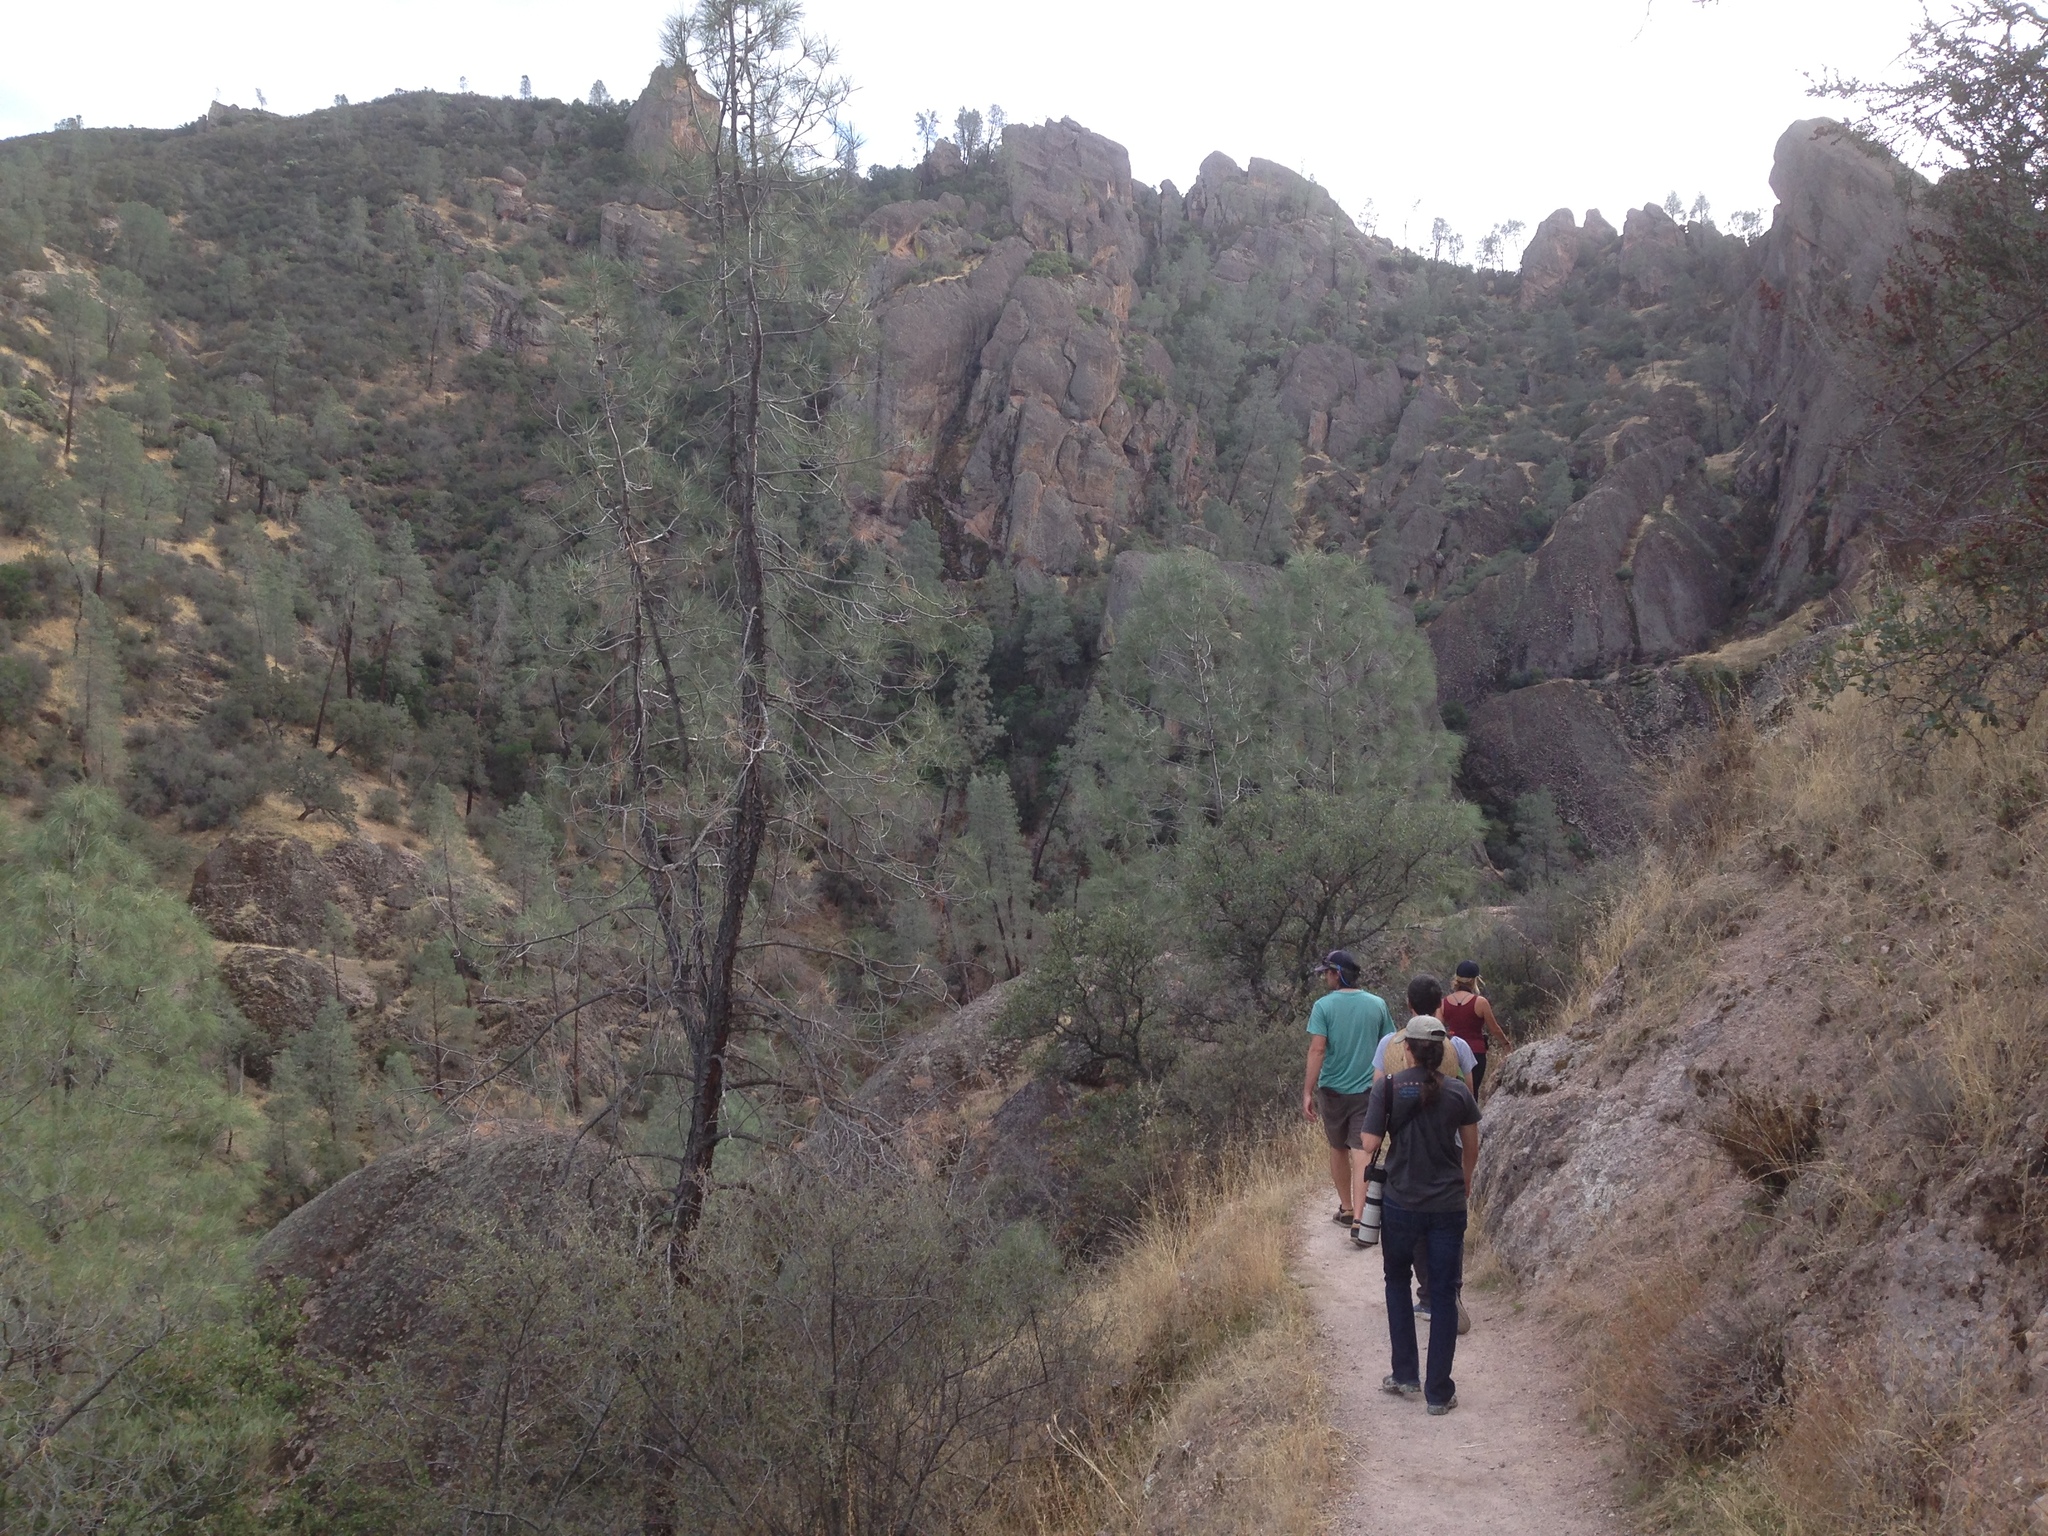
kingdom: Plantae
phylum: Tracheophyta
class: Pinopsida
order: Pinales
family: Pinaceae
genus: Pinus
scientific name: Pinus sabiniana
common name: Bull pine
